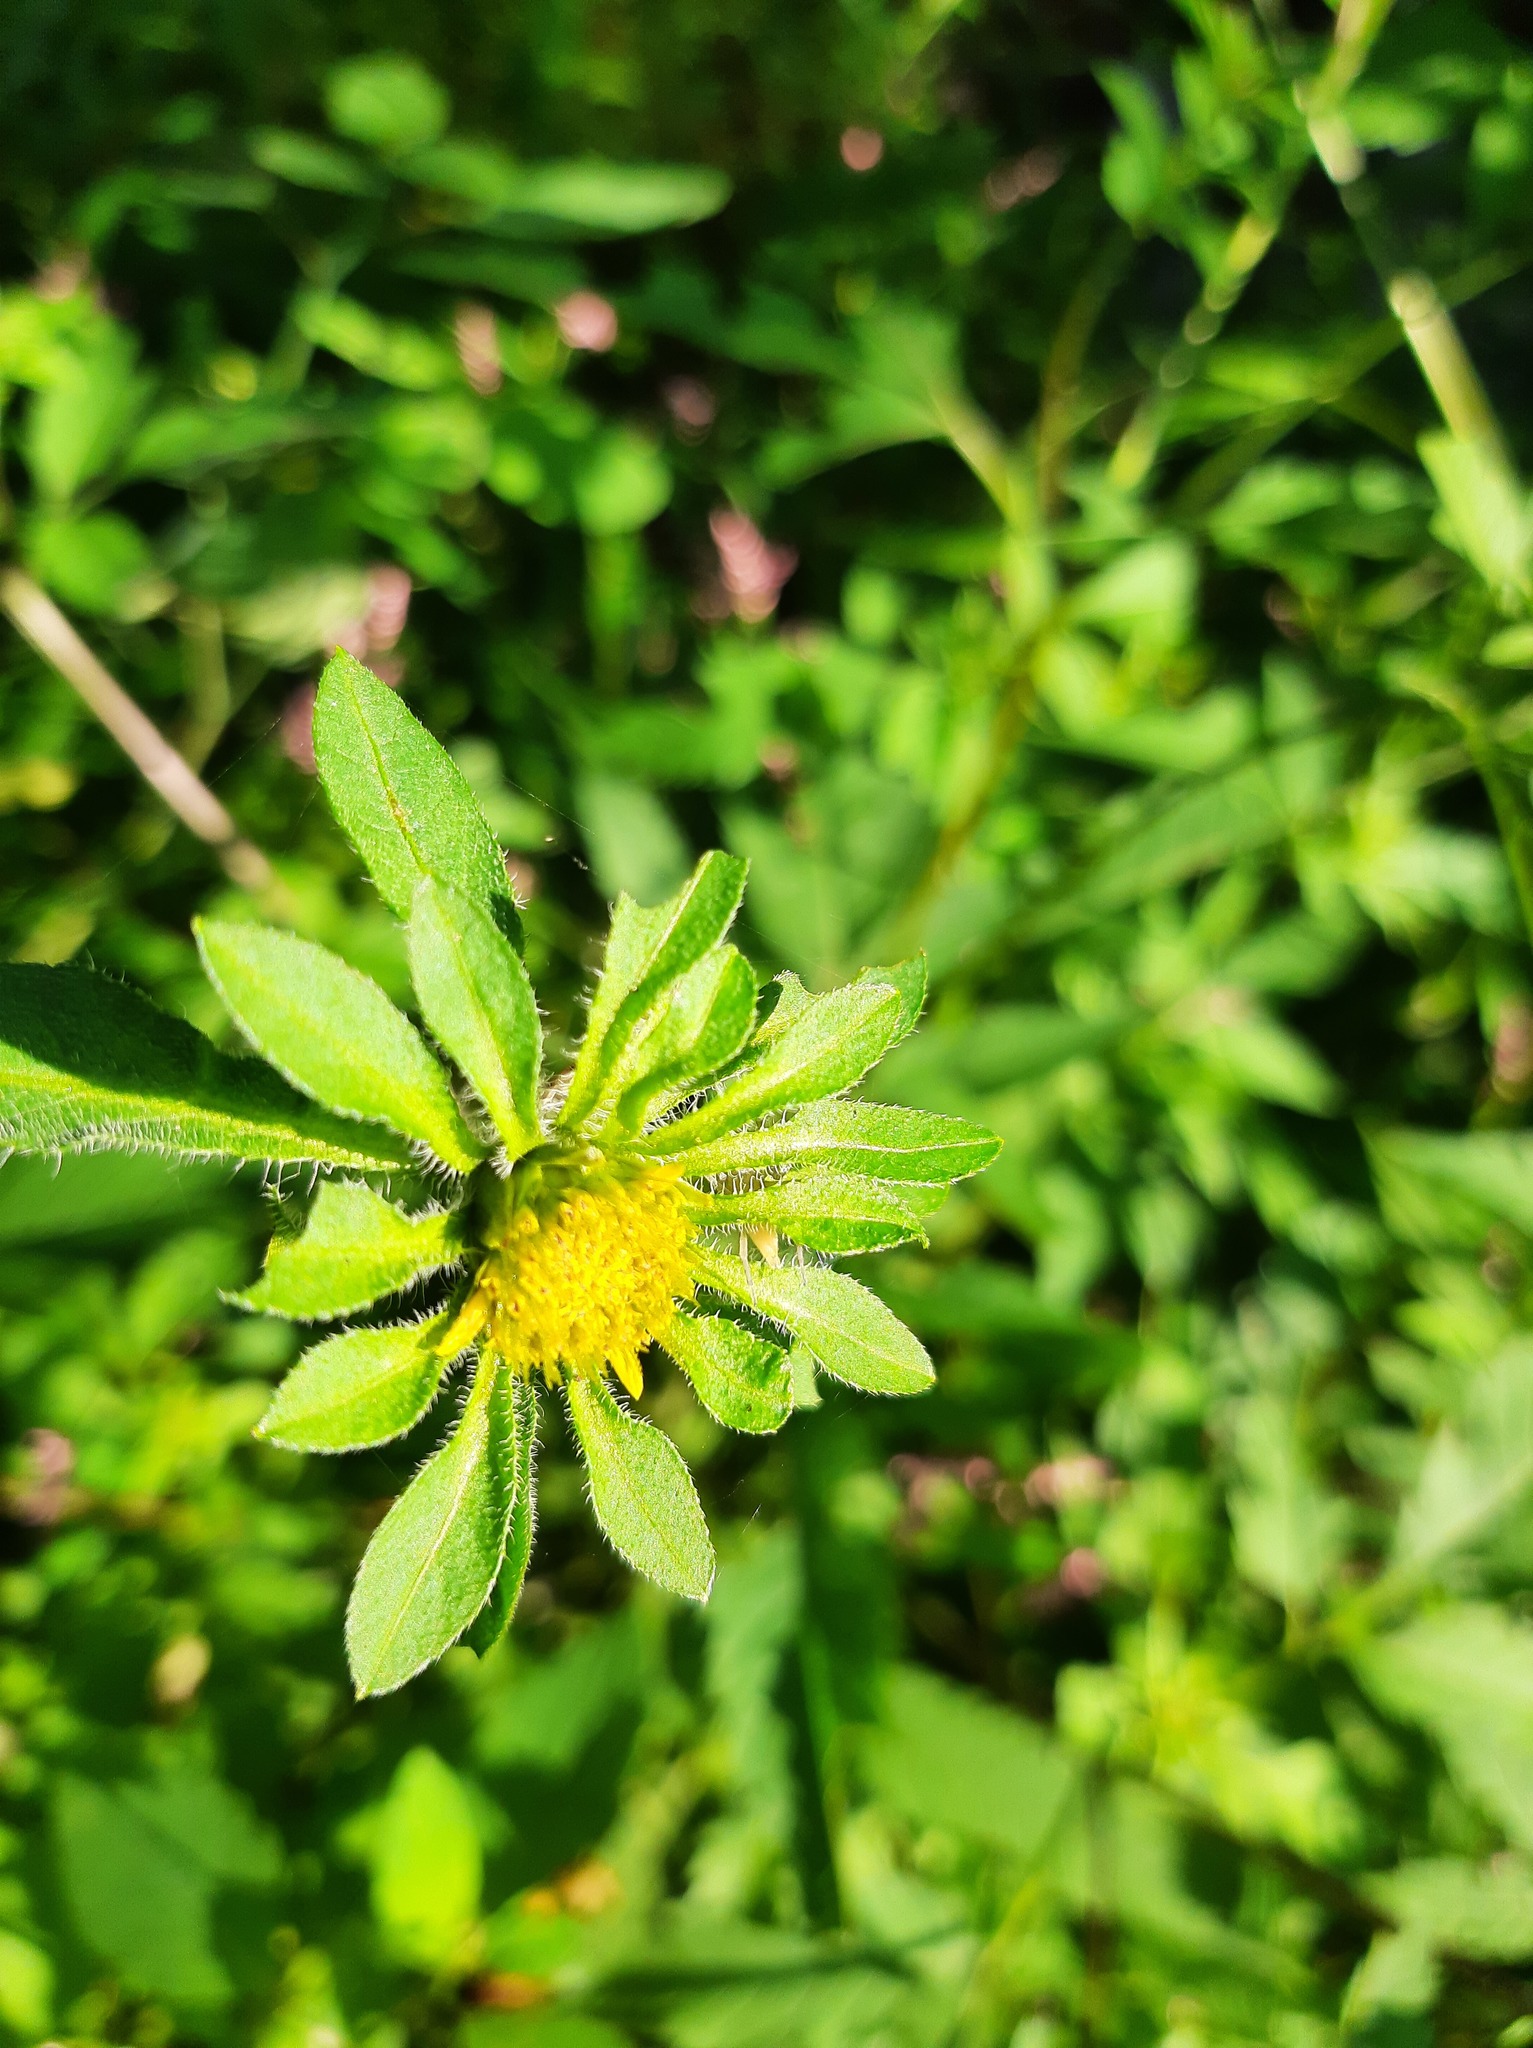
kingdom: Plantae
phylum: Tracheophyta
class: Magnoliopsida
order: Asterales
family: Asteraceae
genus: Bidens
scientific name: Bidens vulgata
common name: Tall beggarticks
